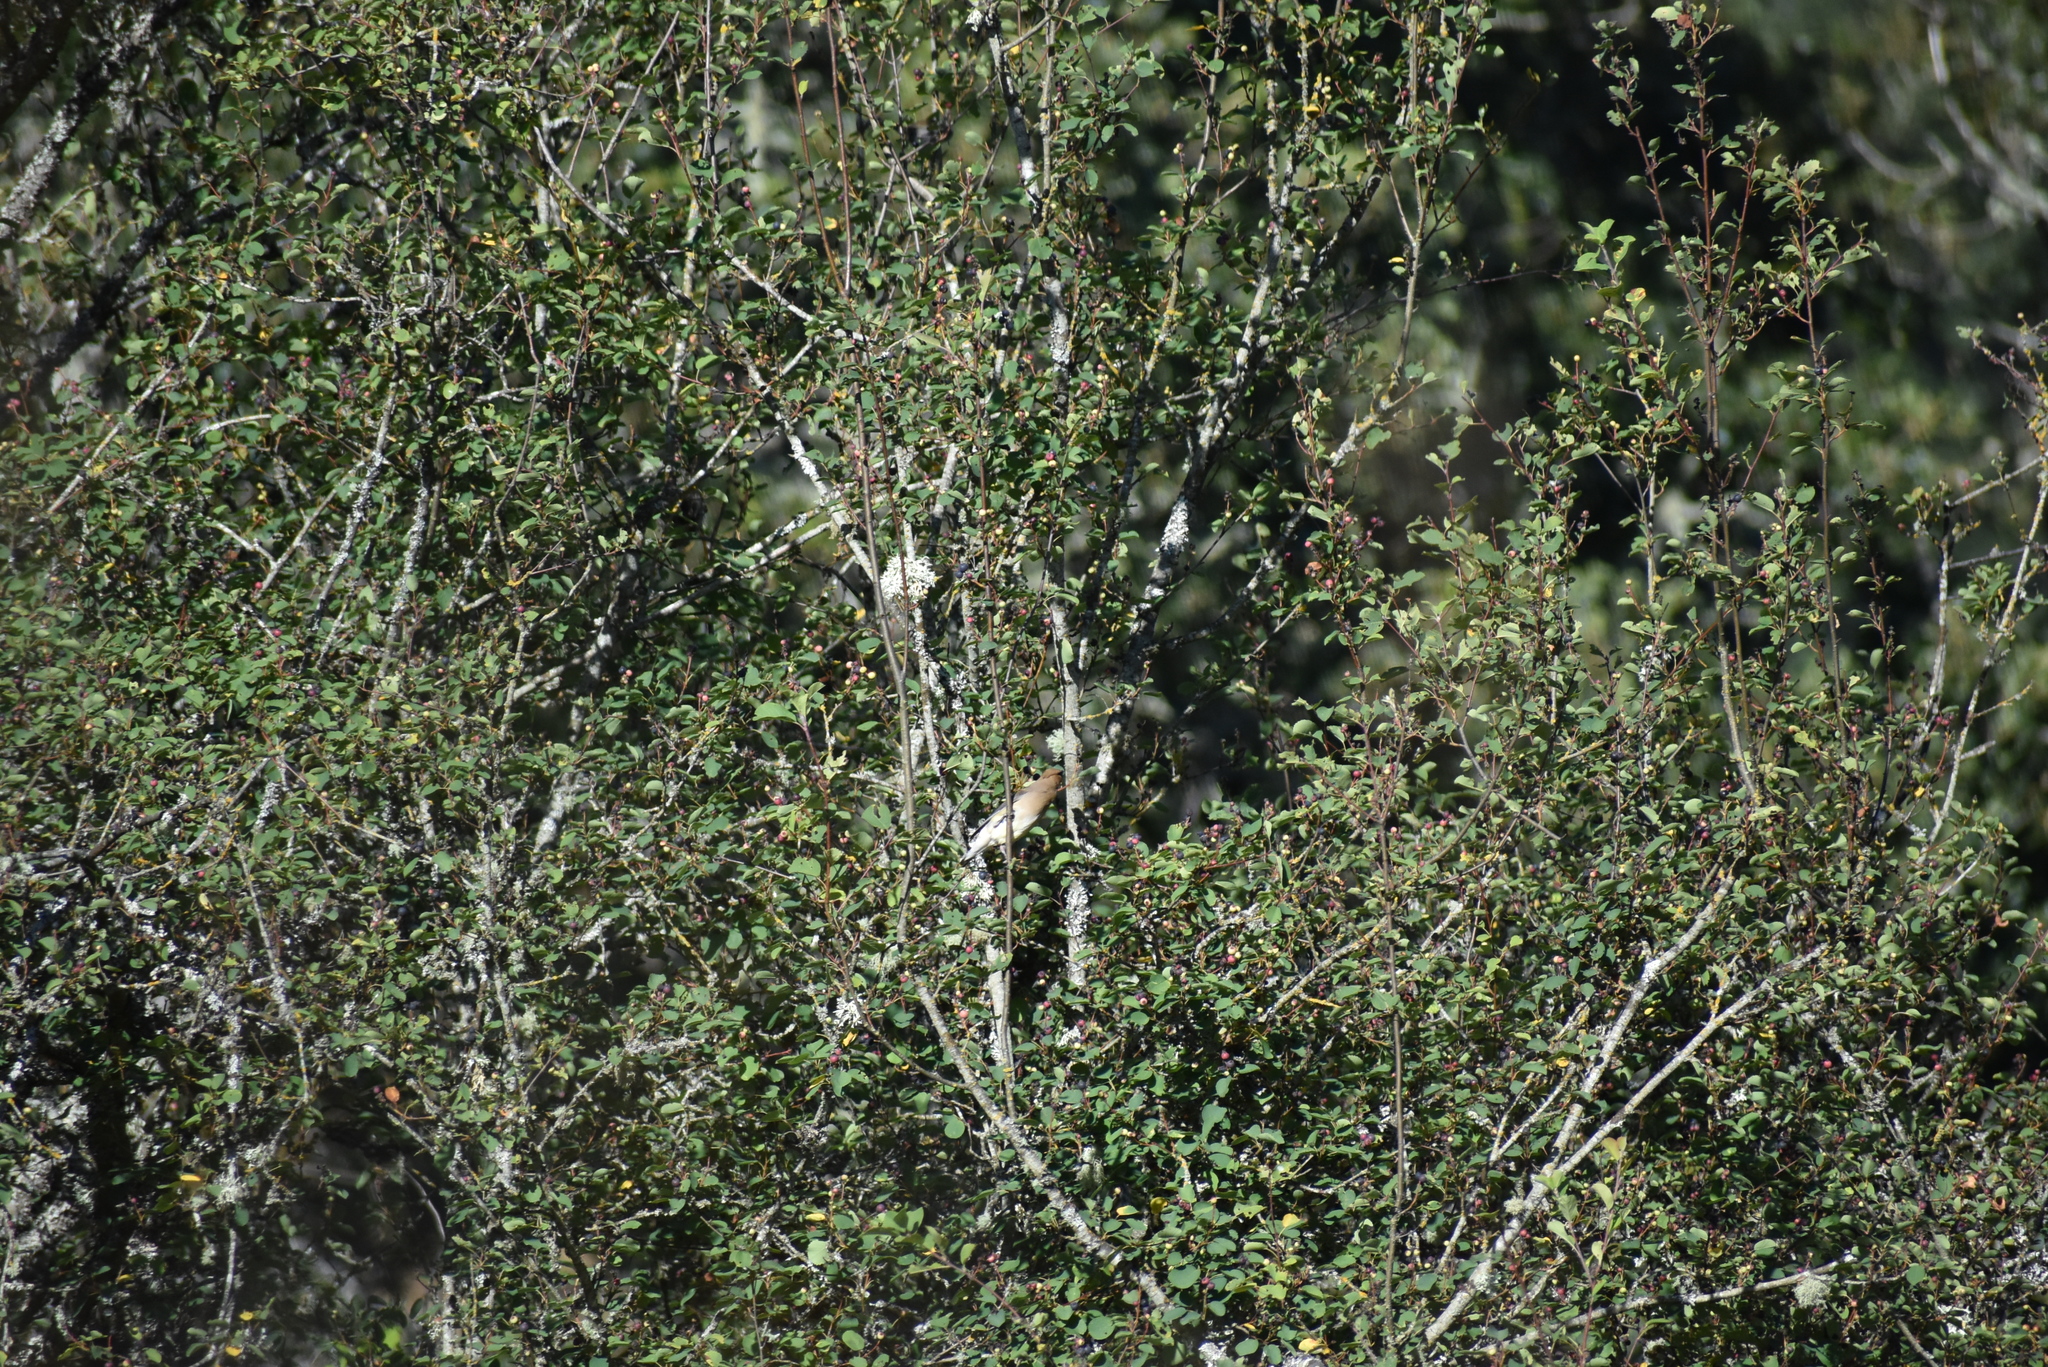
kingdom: Animalia
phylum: Chordata
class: Aves
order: Passeriformes
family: Bombycillidae
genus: Bombycilla
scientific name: Bombycilla cedrorum
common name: Cedar waxwing
